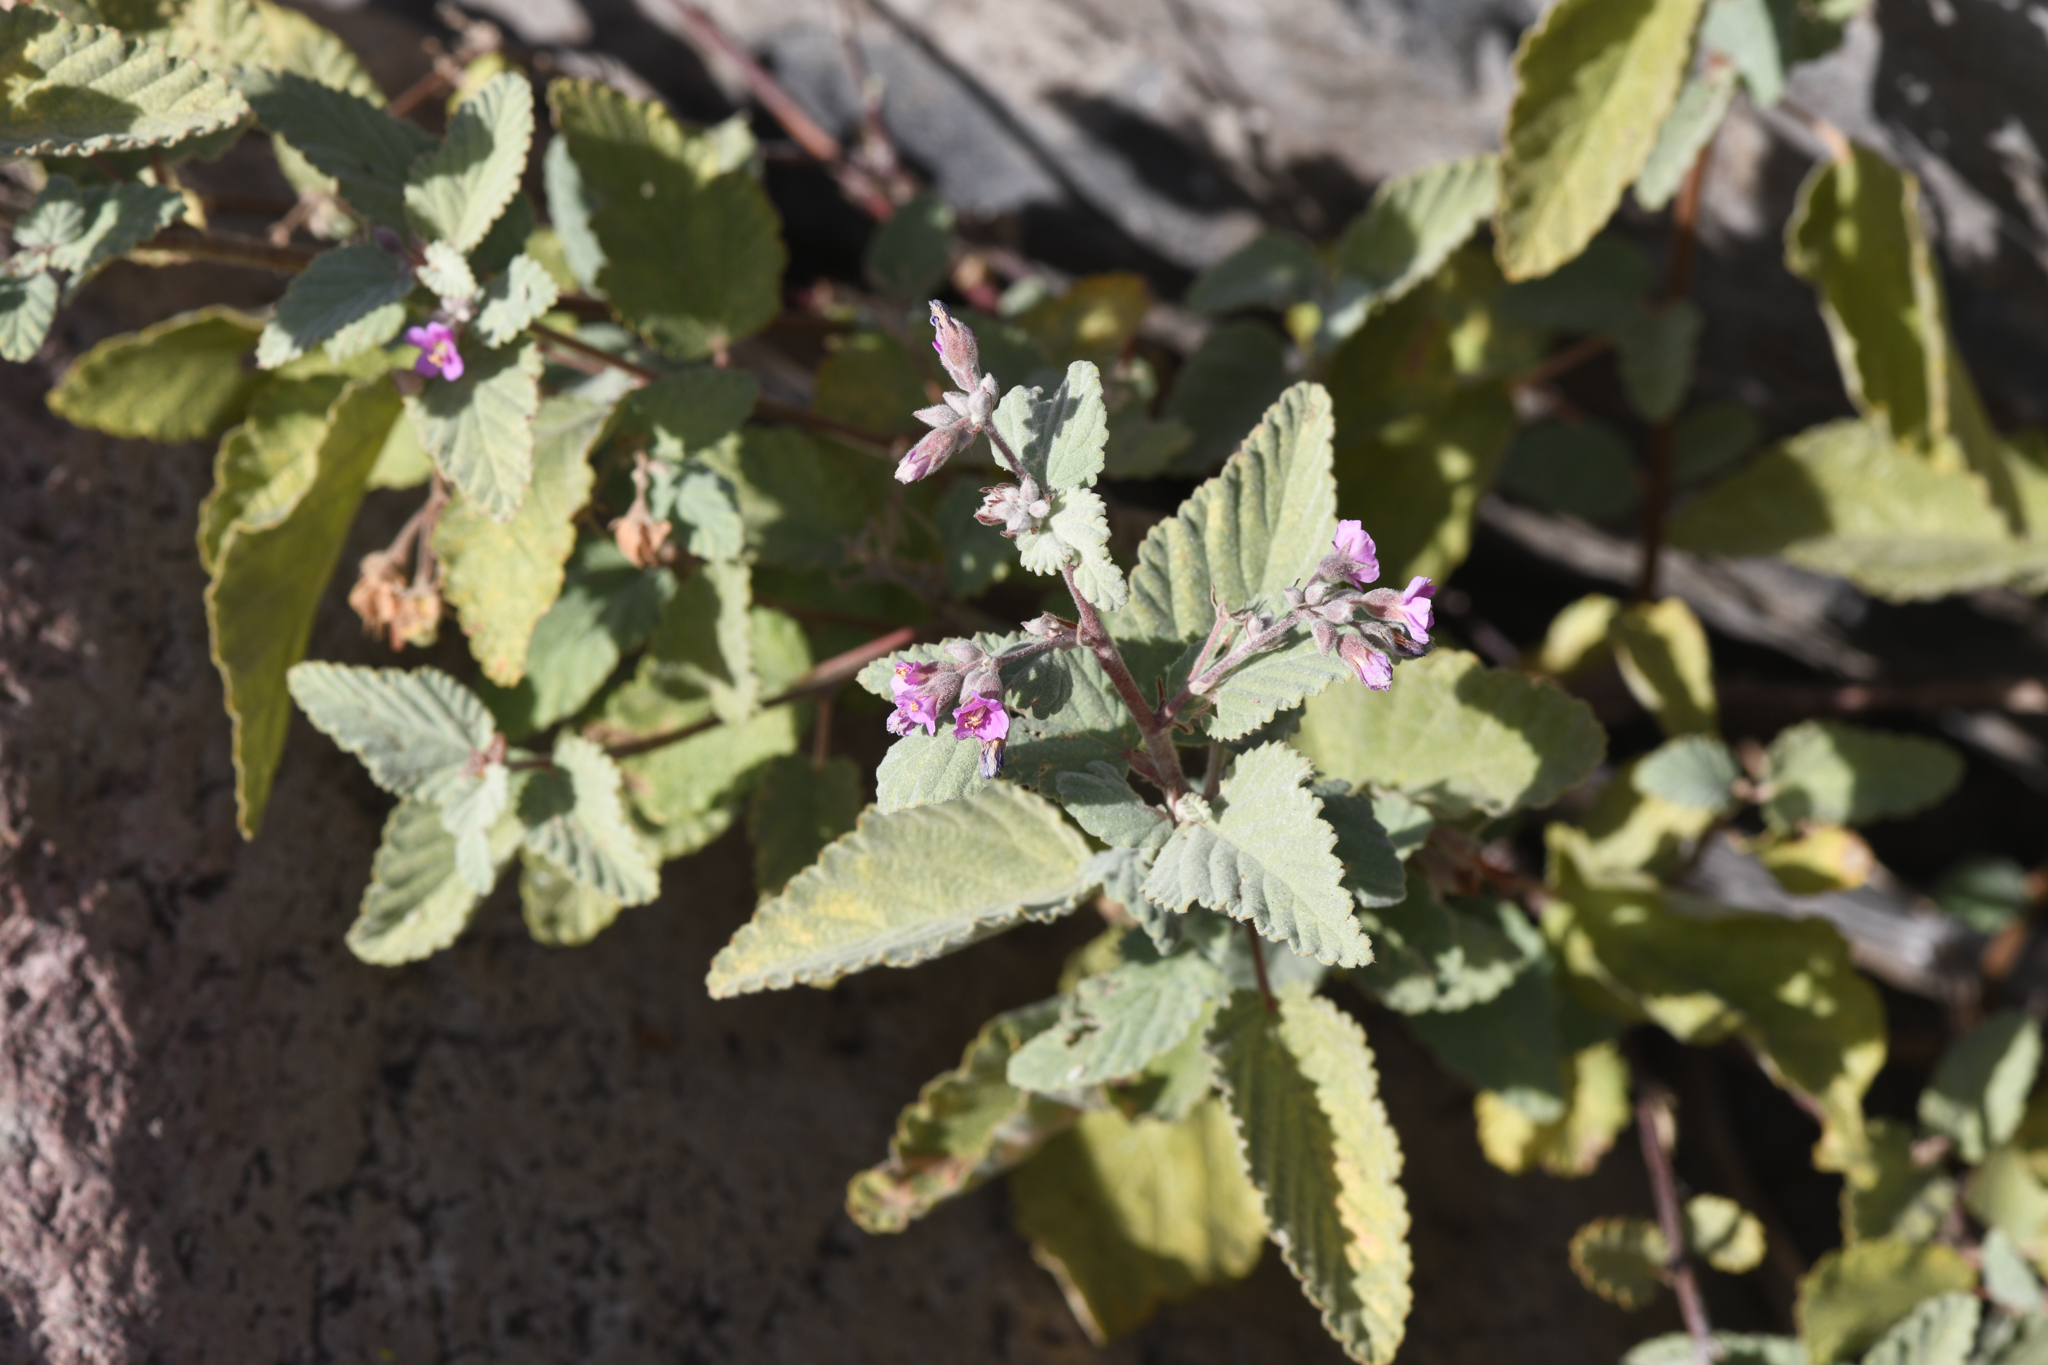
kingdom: Plantae
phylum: Tracheophyta
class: Magnoliopsida
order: Malvales
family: Malvaceae
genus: Melochia
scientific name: Melochia tomentosa
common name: Black torch
